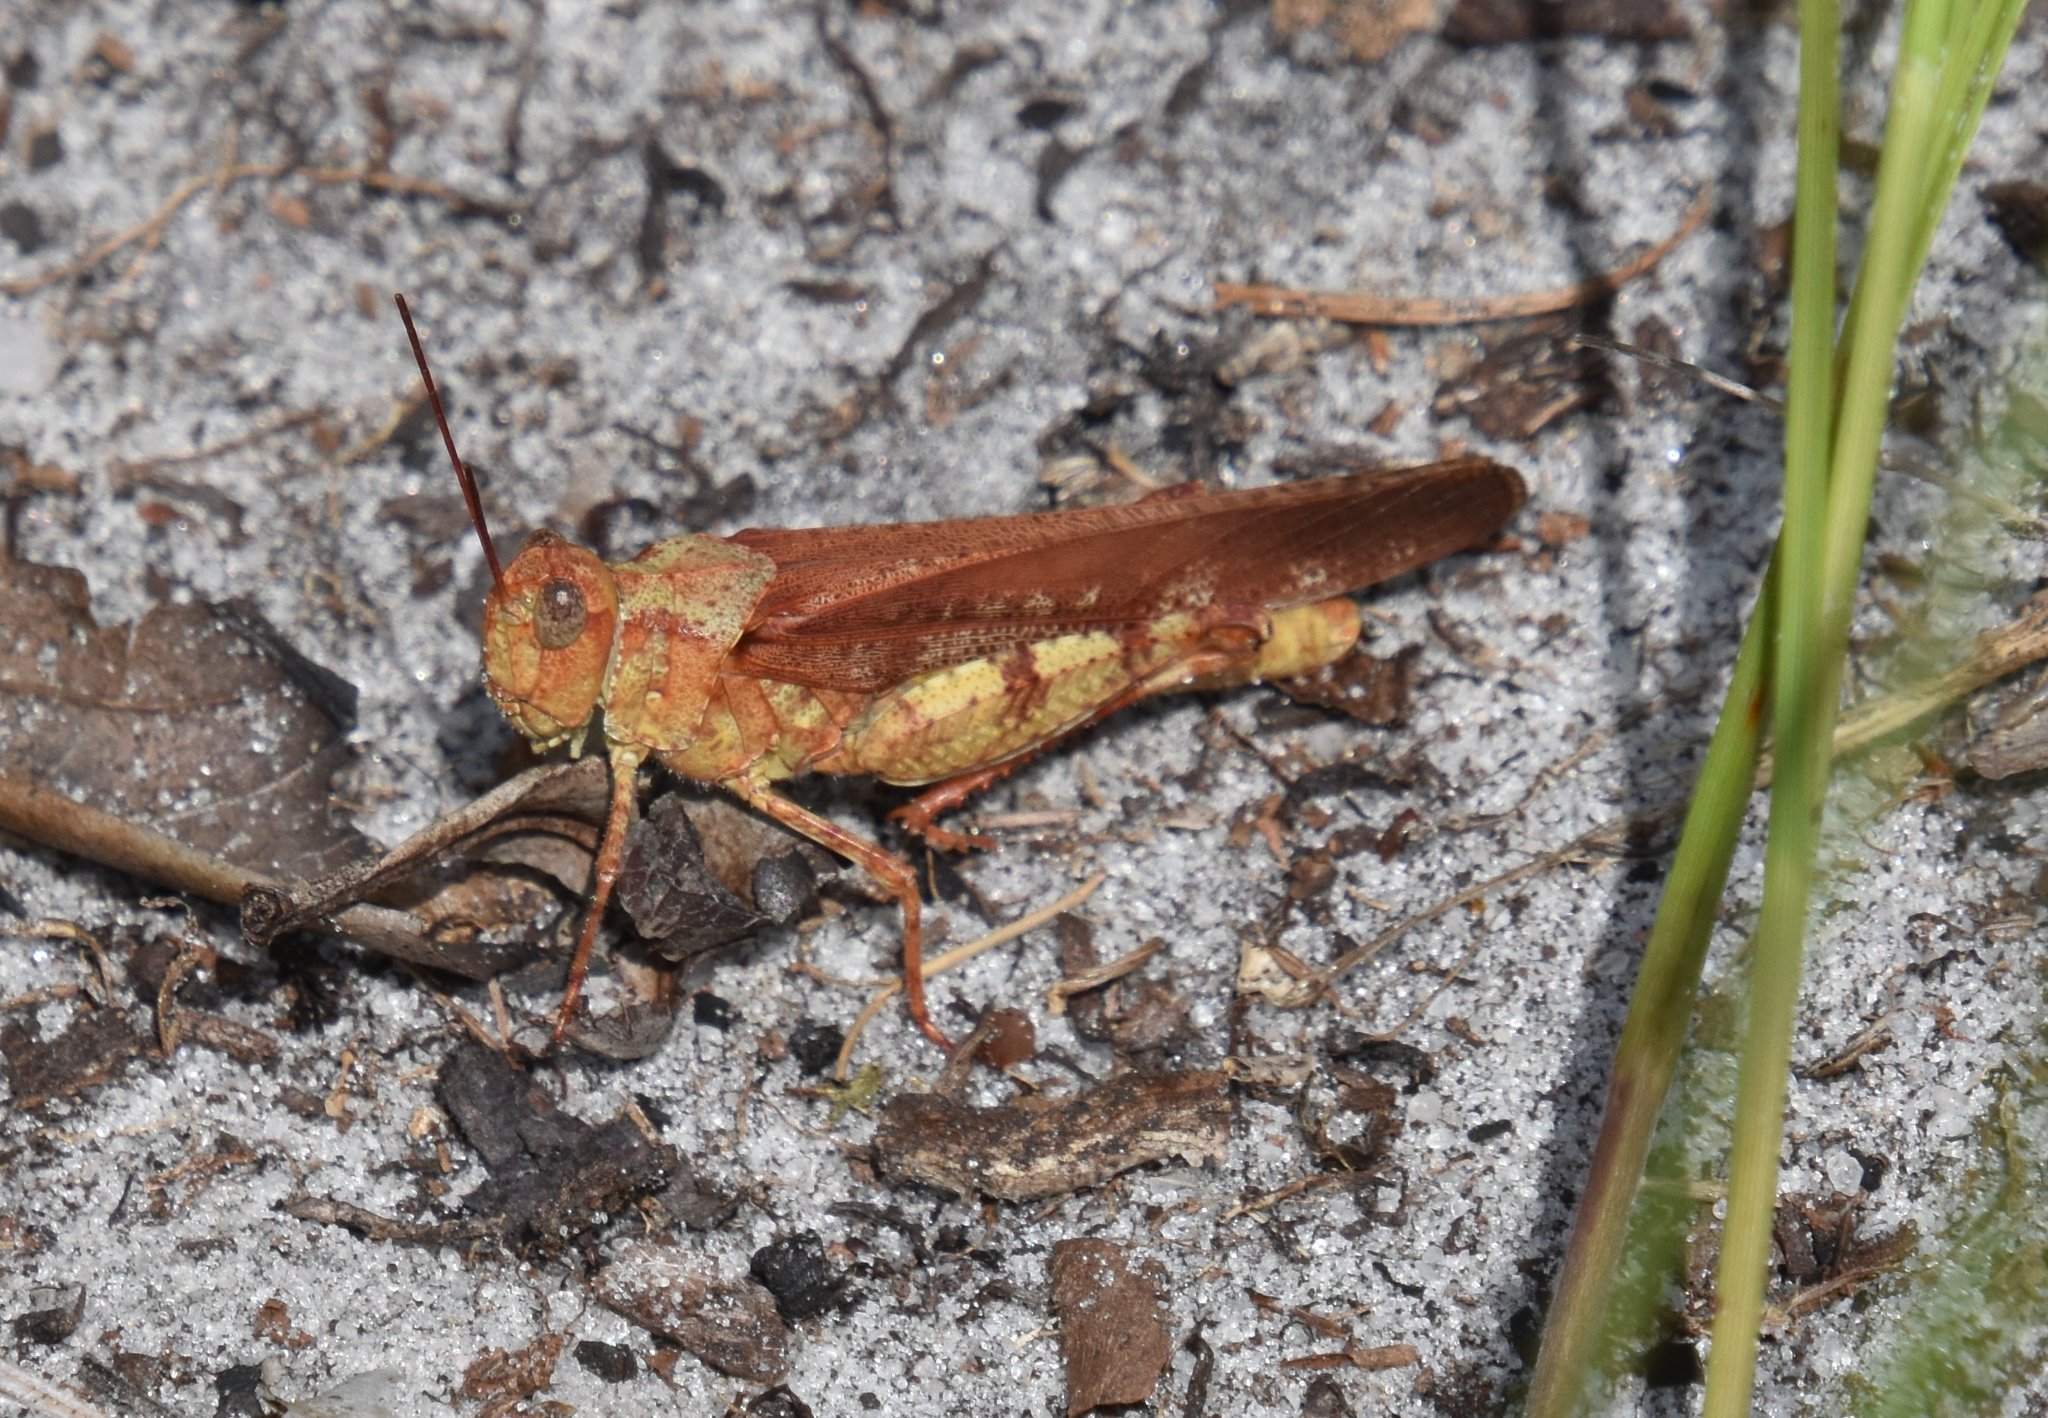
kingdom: Animalia
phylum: Arthropoda
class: Insecta
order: Orthoptera
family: Acrididae
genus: Spharagemon
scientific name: Spharagemon marmoratum
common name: Marbled grasshopper
